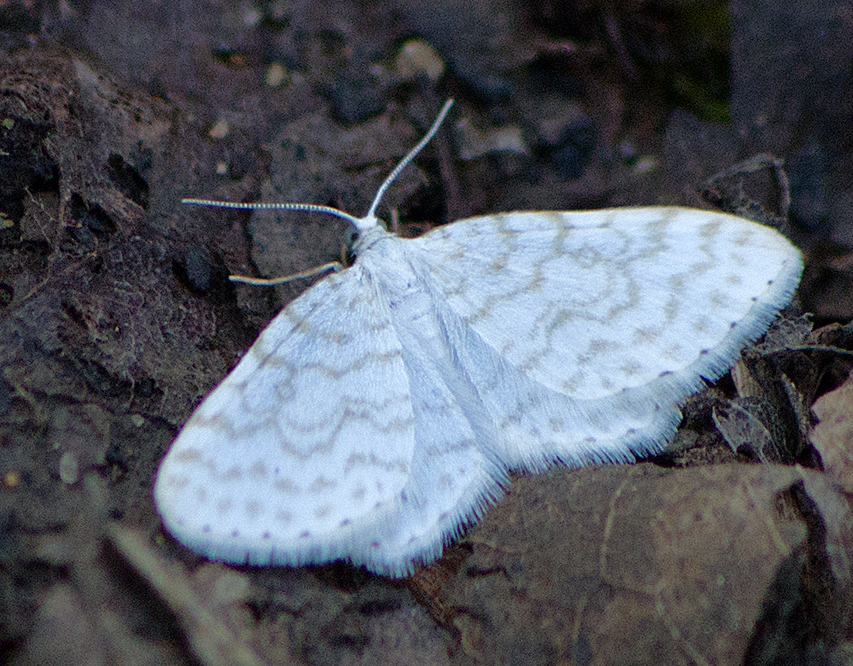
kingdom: Animalia
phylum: Arthropoda
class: Insecta
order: Lepidoptera
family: Geometridae
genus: Asthena
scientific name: Asthena albulata
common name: Small white wave
